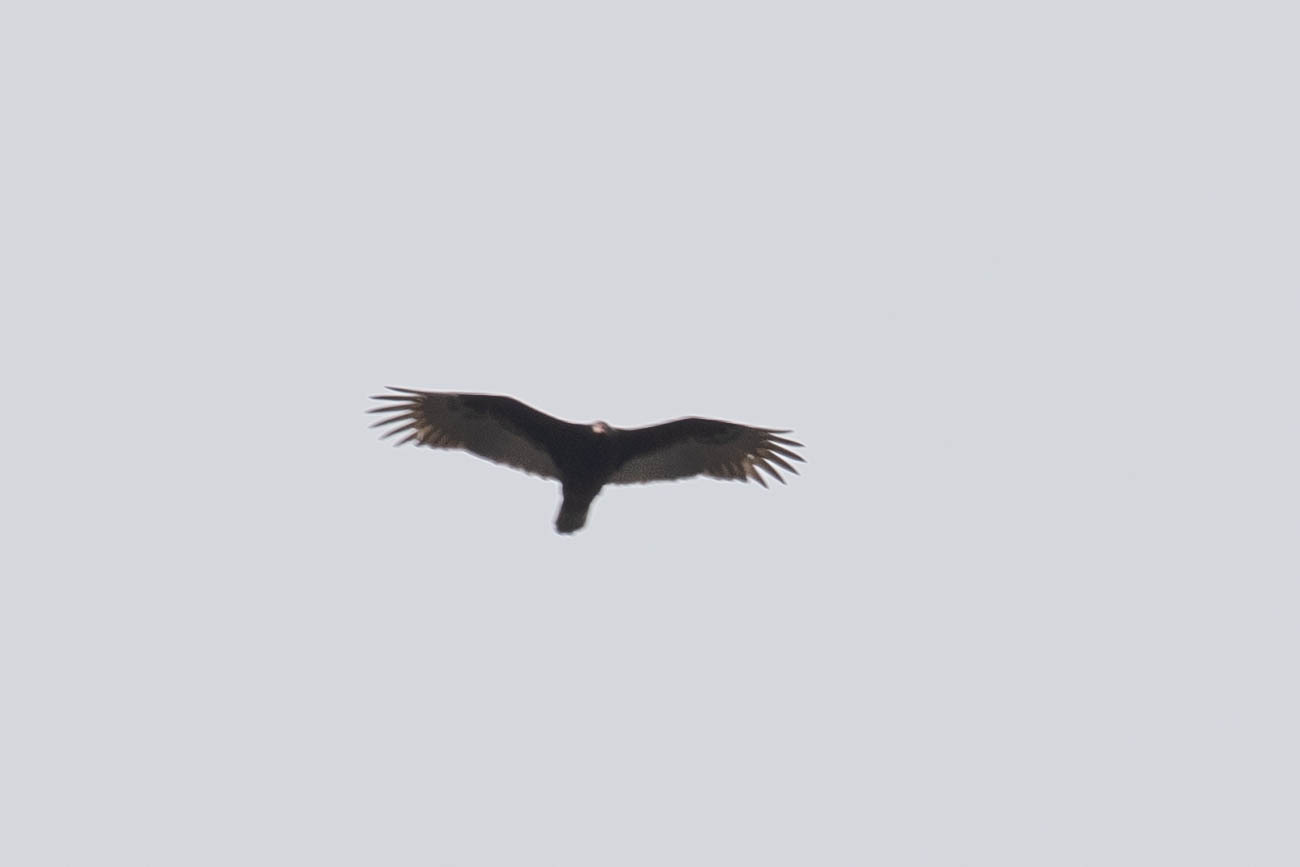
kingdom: Animalia
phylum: Chordata
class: Aves
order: Accipitriformes
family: Cathartidae
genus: Cathartes
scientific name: Cathartes aura
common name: Turkey vulture
